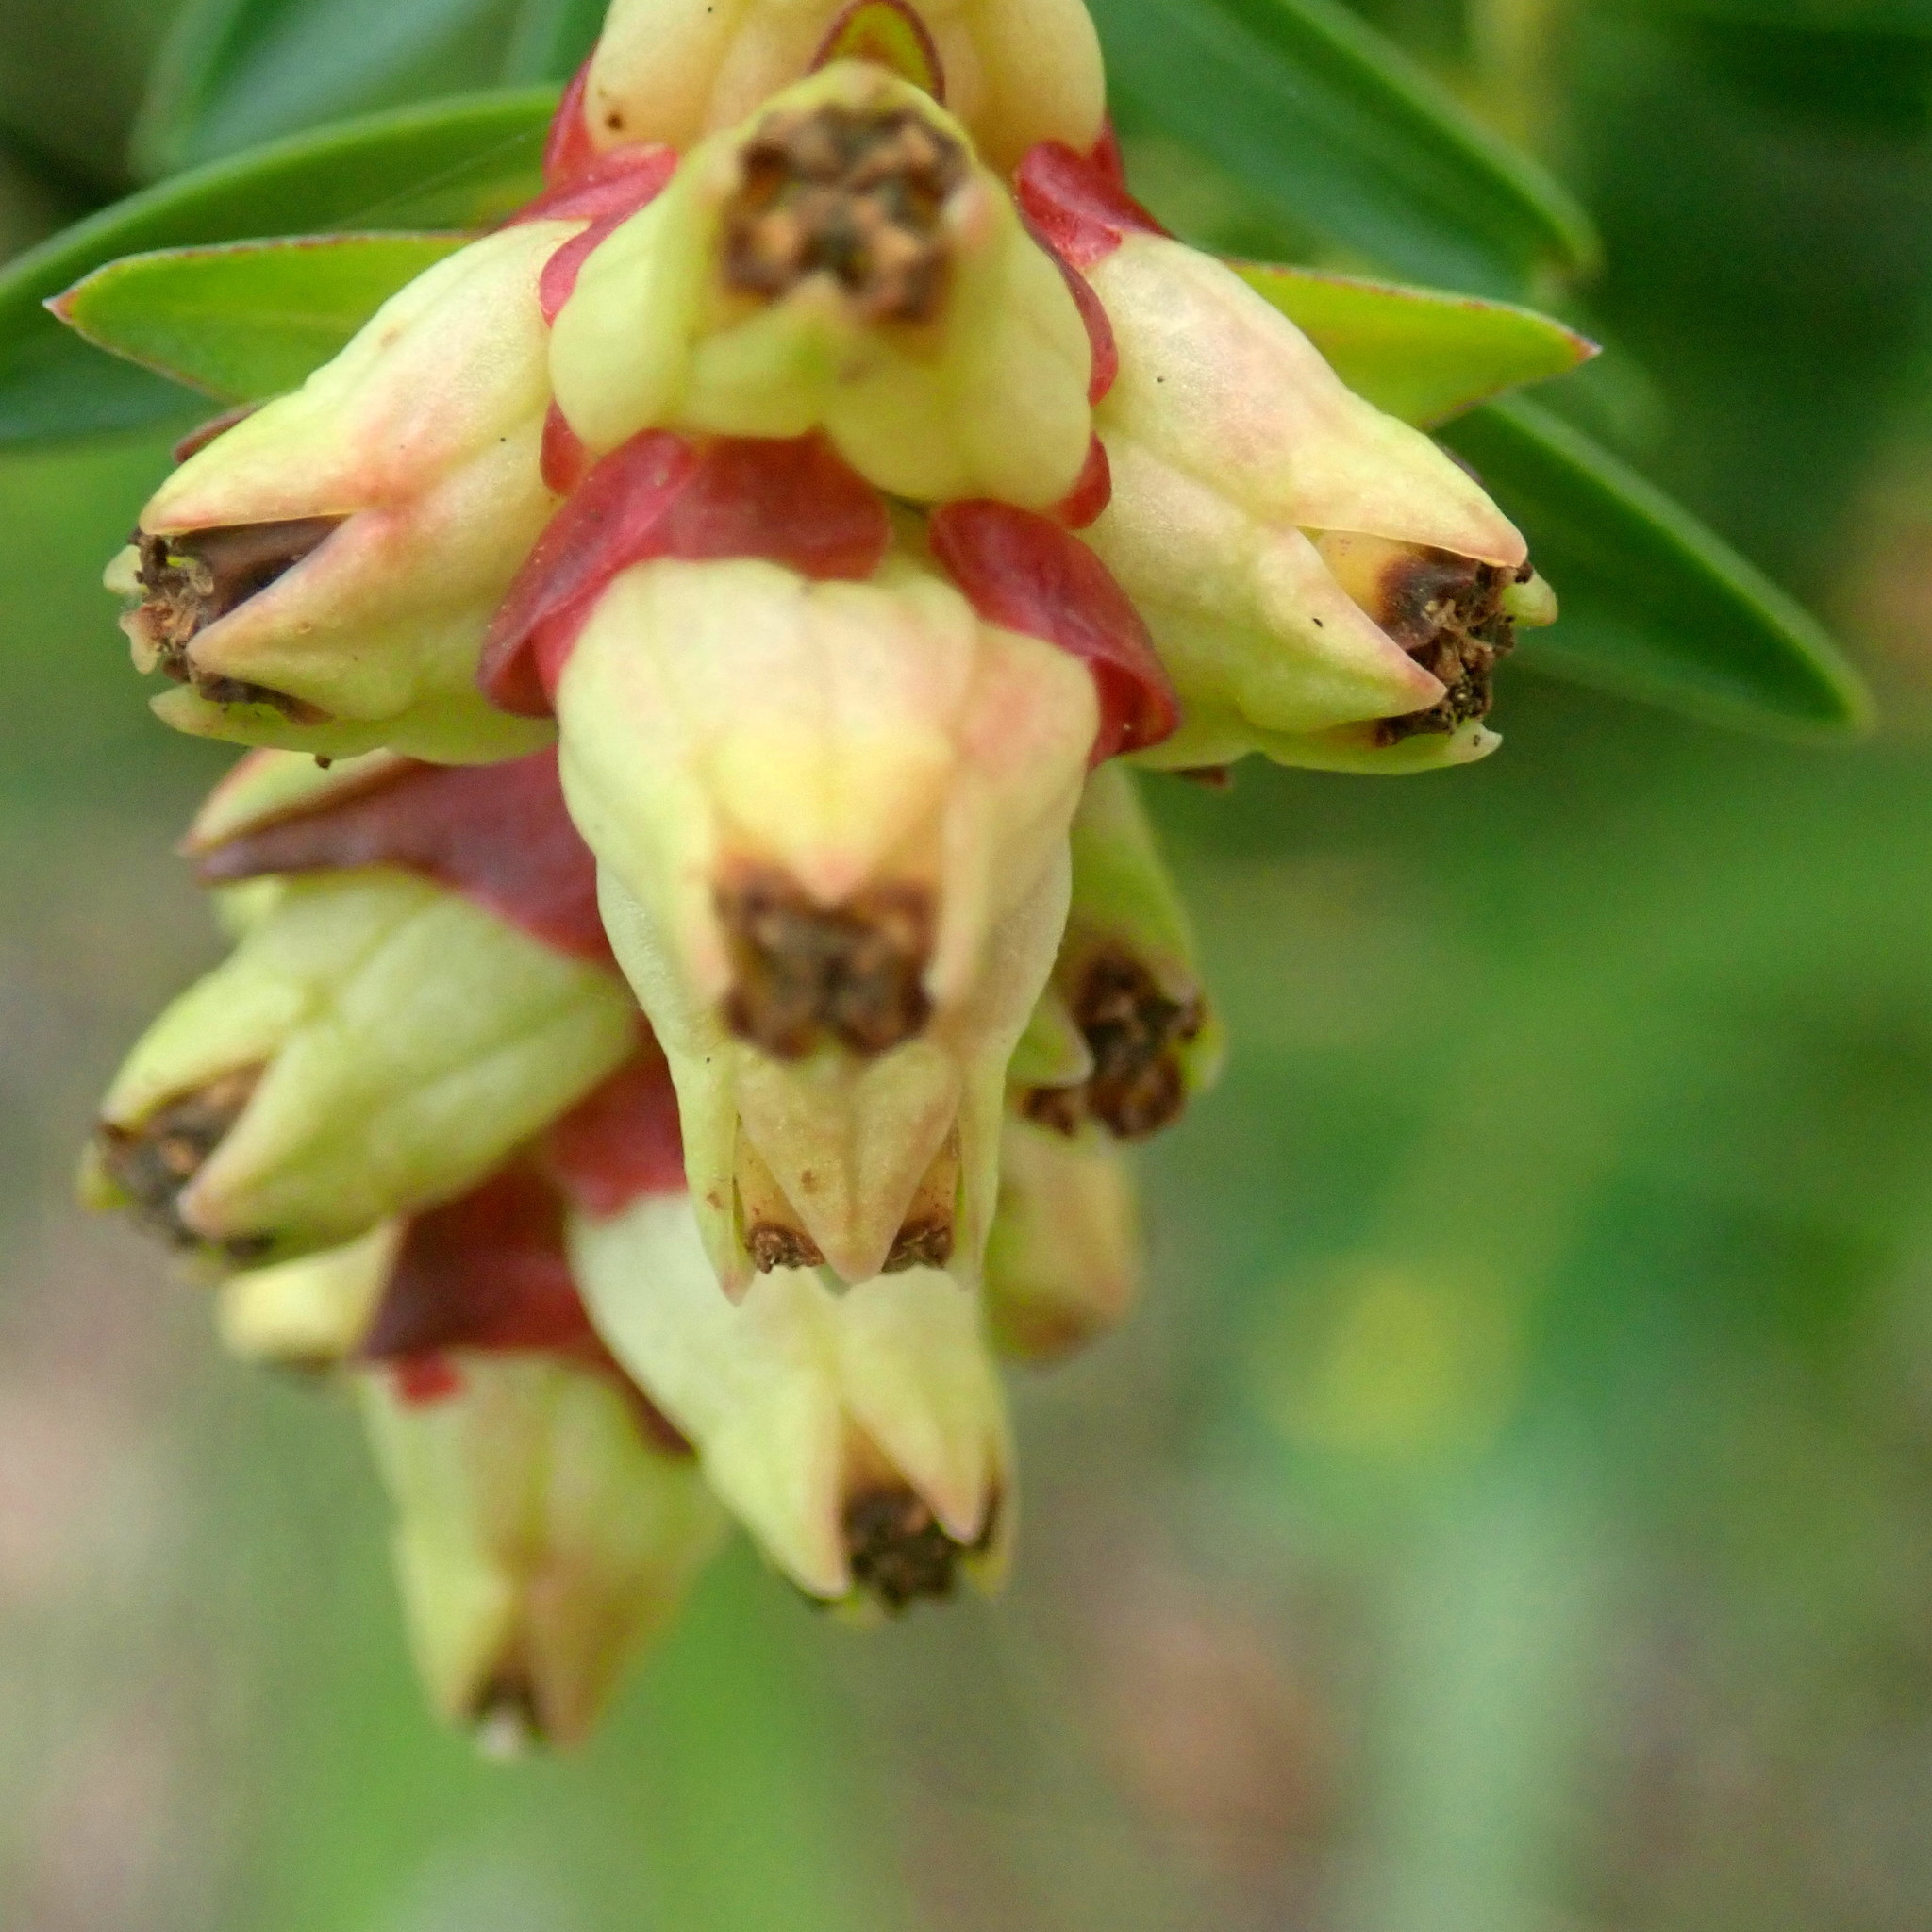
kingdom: Plantae
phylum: Tracheophyta
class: Magnoliopsida
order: Myrtales
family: Penaeaceae
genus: Penaea
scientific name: Penaea cneorum
